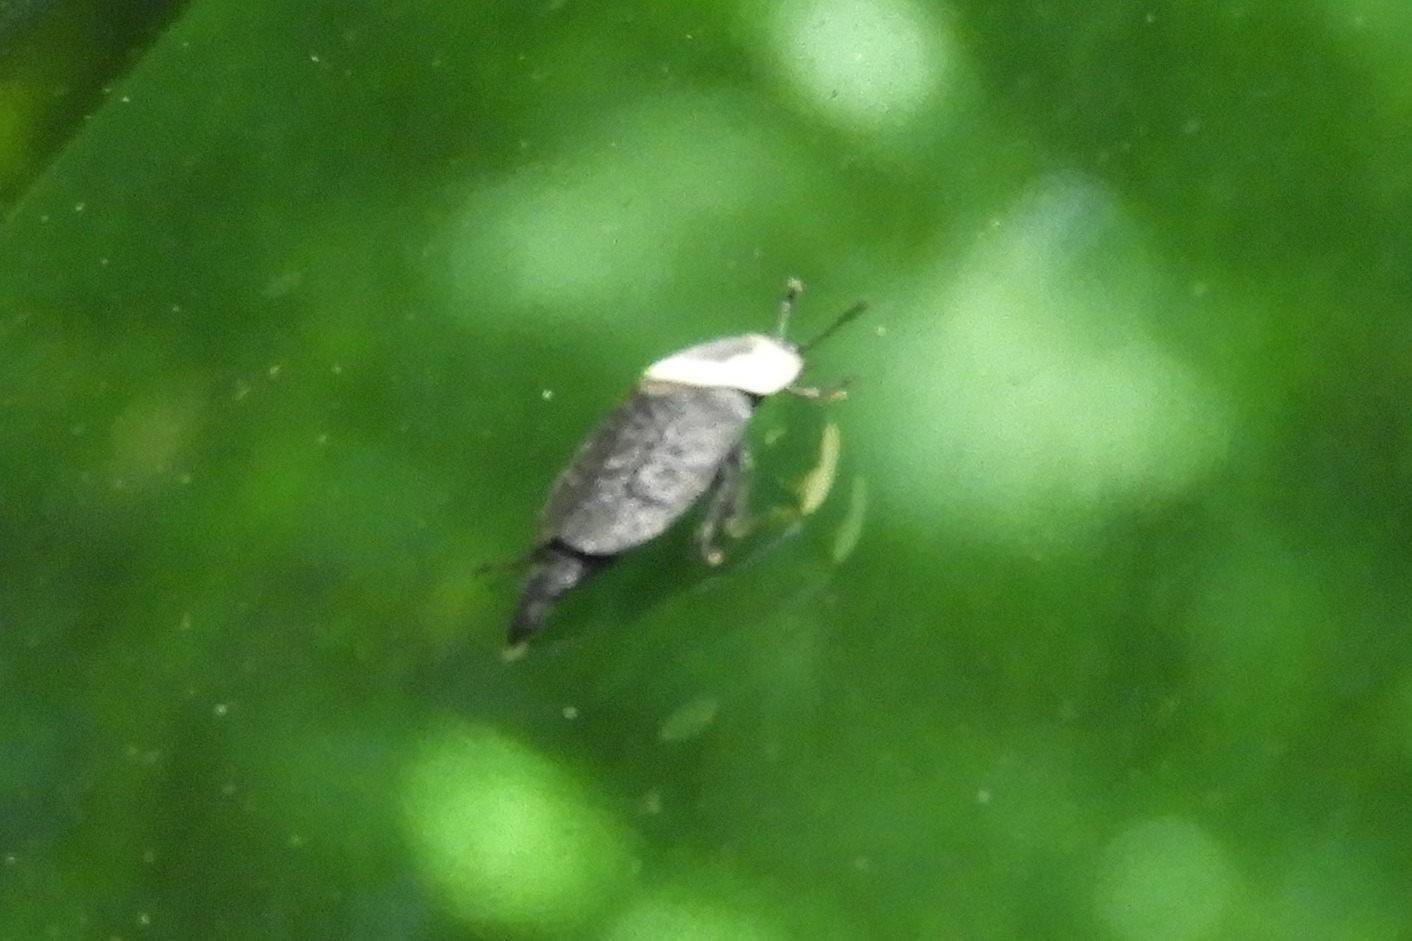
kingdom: Animalia
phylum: Arthropoda
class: Insecta
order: Coleoptera
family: Staphylinidae
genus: Necrophila
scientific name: Necrophila americana
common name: American carrion beetle
